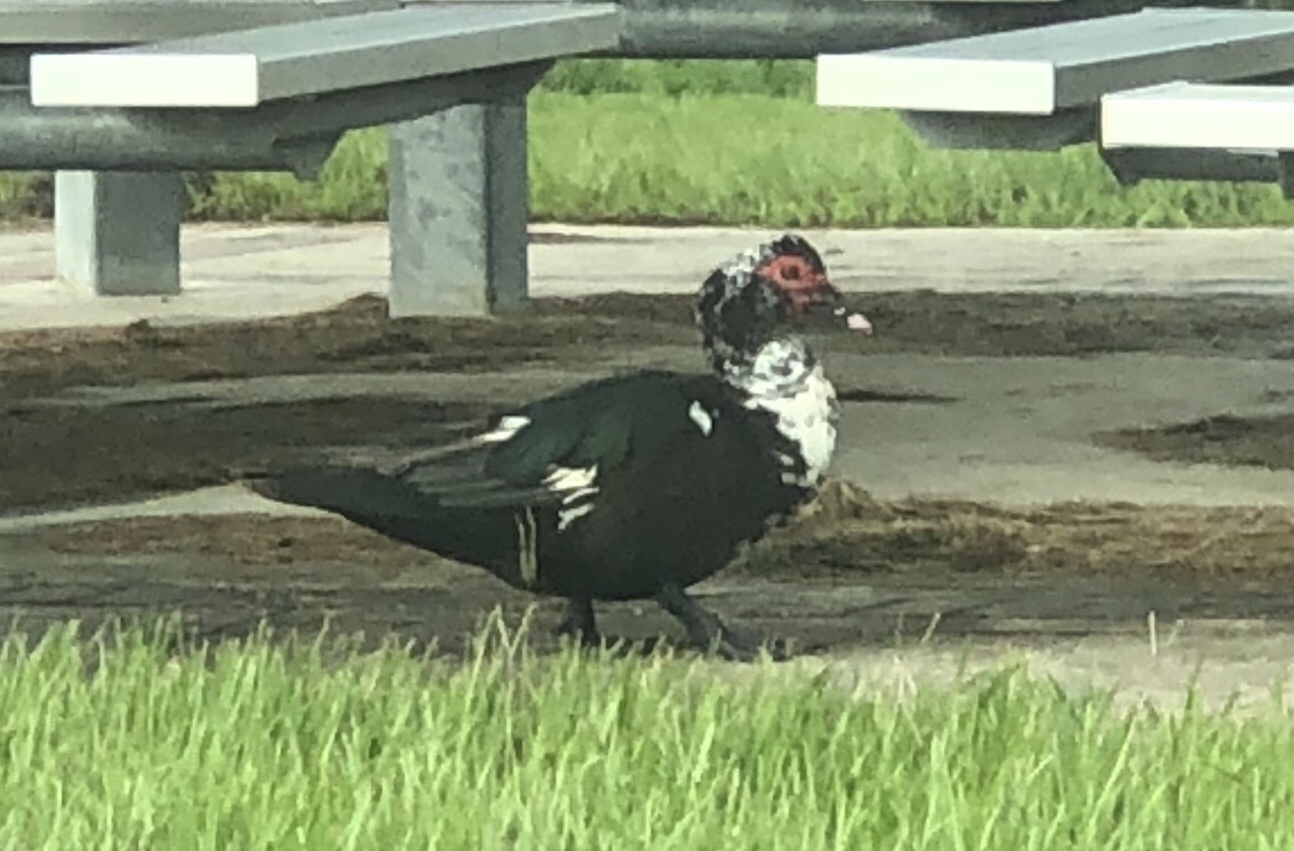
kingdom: Animalia
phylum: Chordata
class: Aves
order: Anseriformes
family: Anatidae
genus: Cairina
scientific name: Cairina moschata
